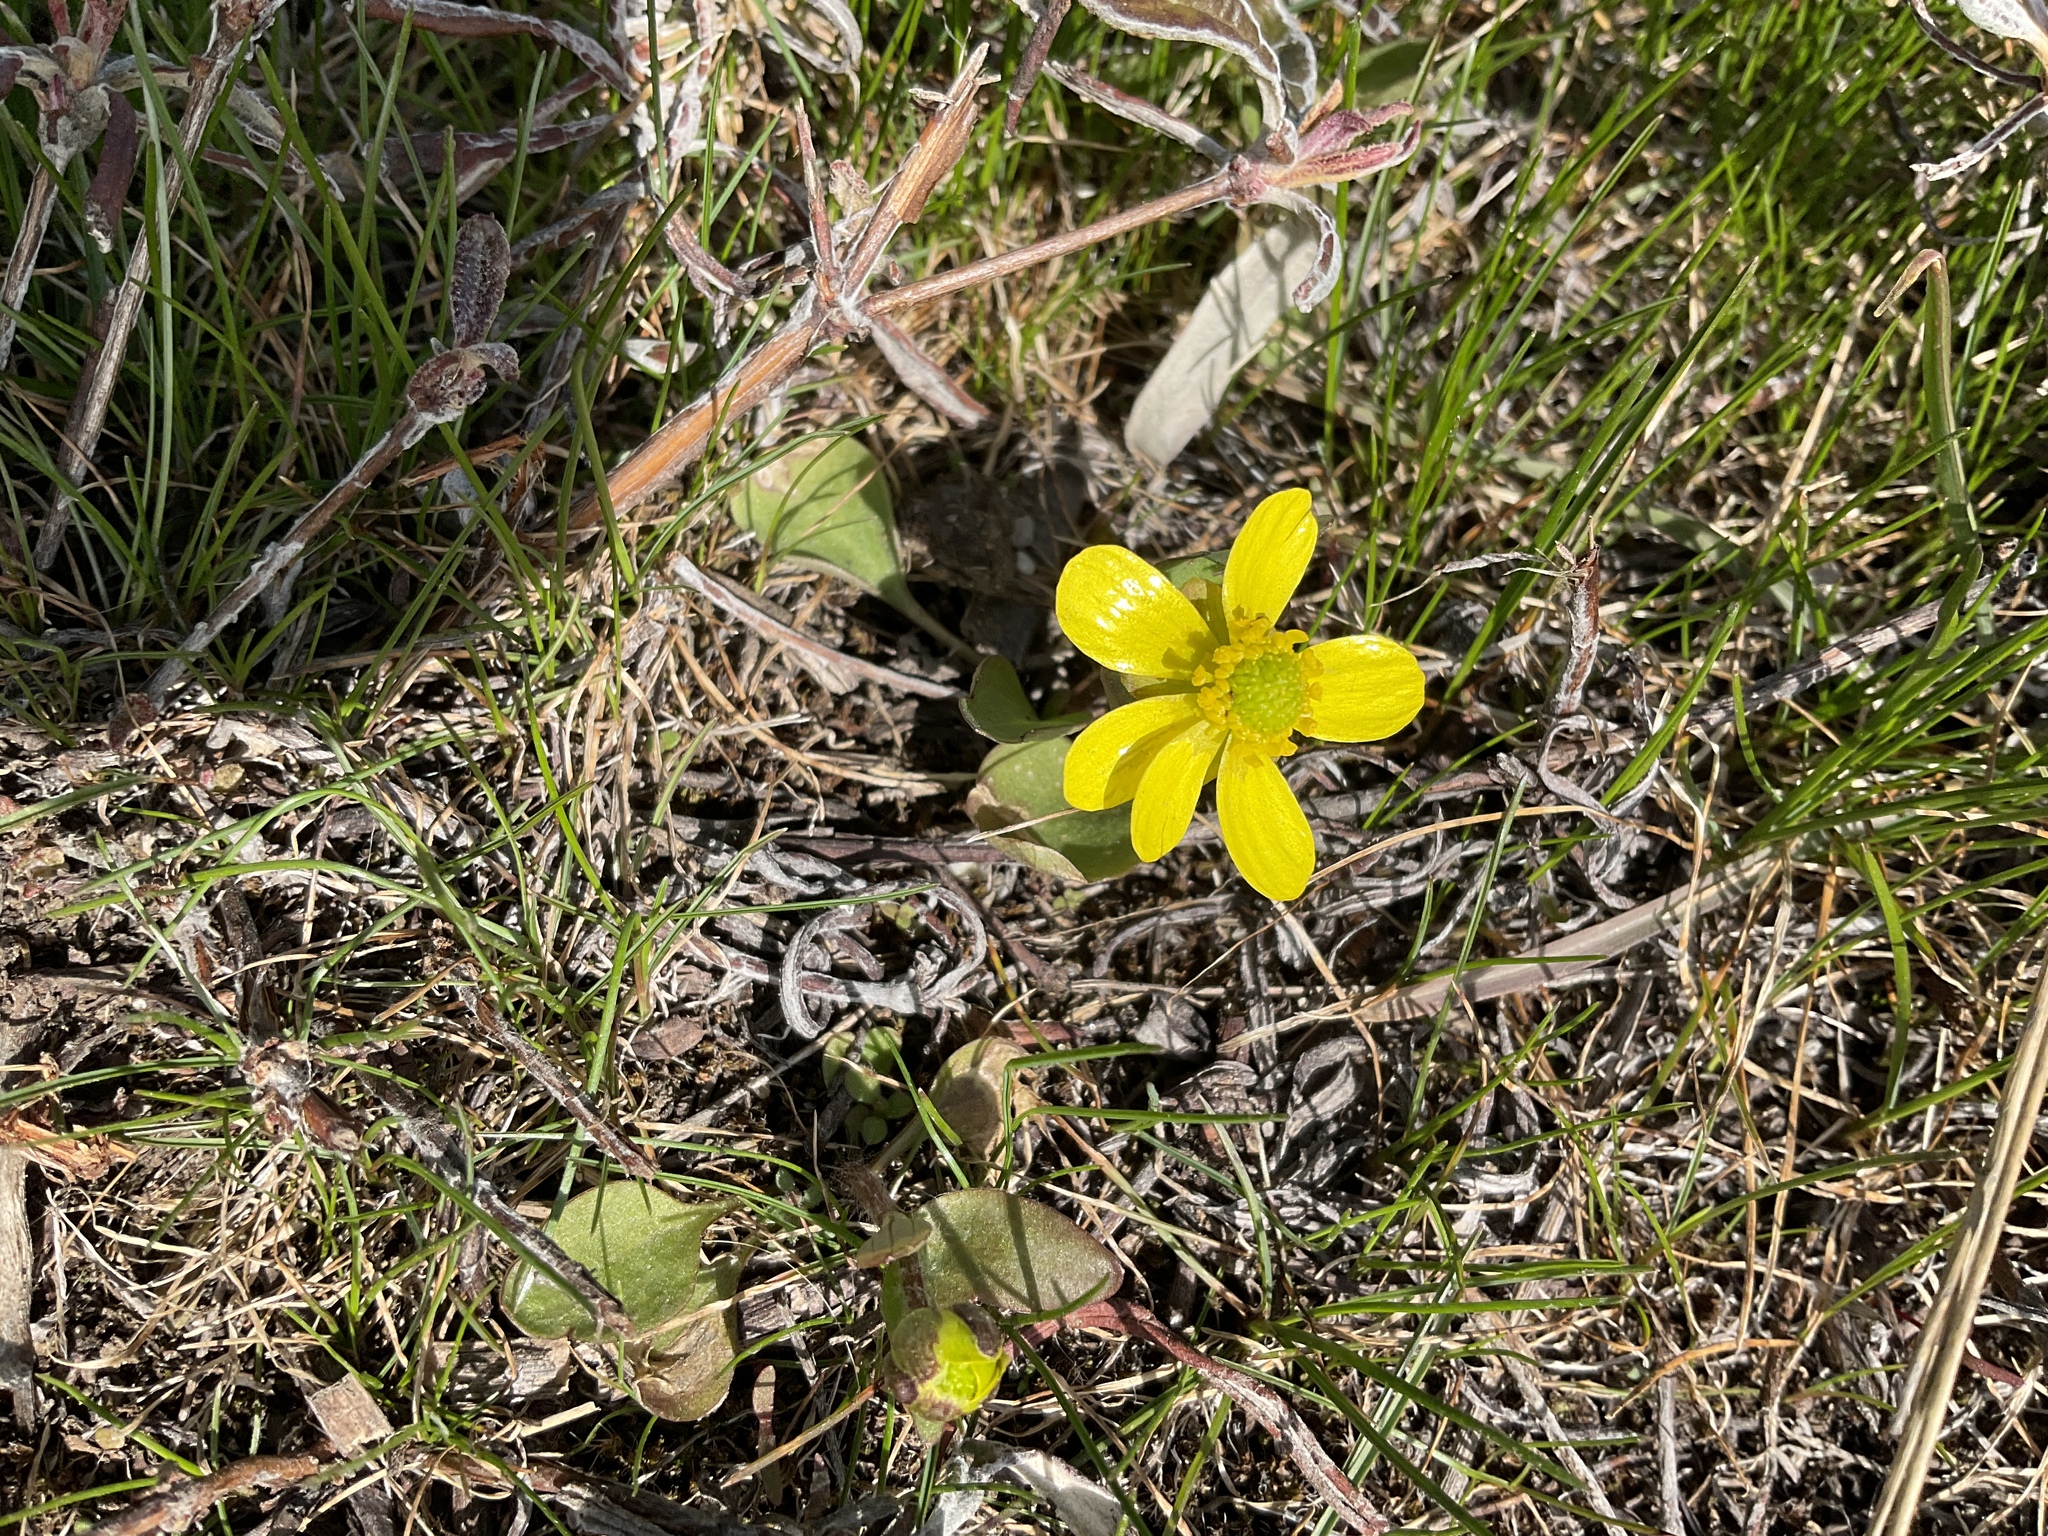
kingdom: Plantae
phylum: Tracheophyta
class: Magnoliopsida
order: Ranunculales
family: Ranunculaceae
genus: Ranunculus
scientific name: Ranunculus glaberrimus
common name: Sagebrush buttercup
